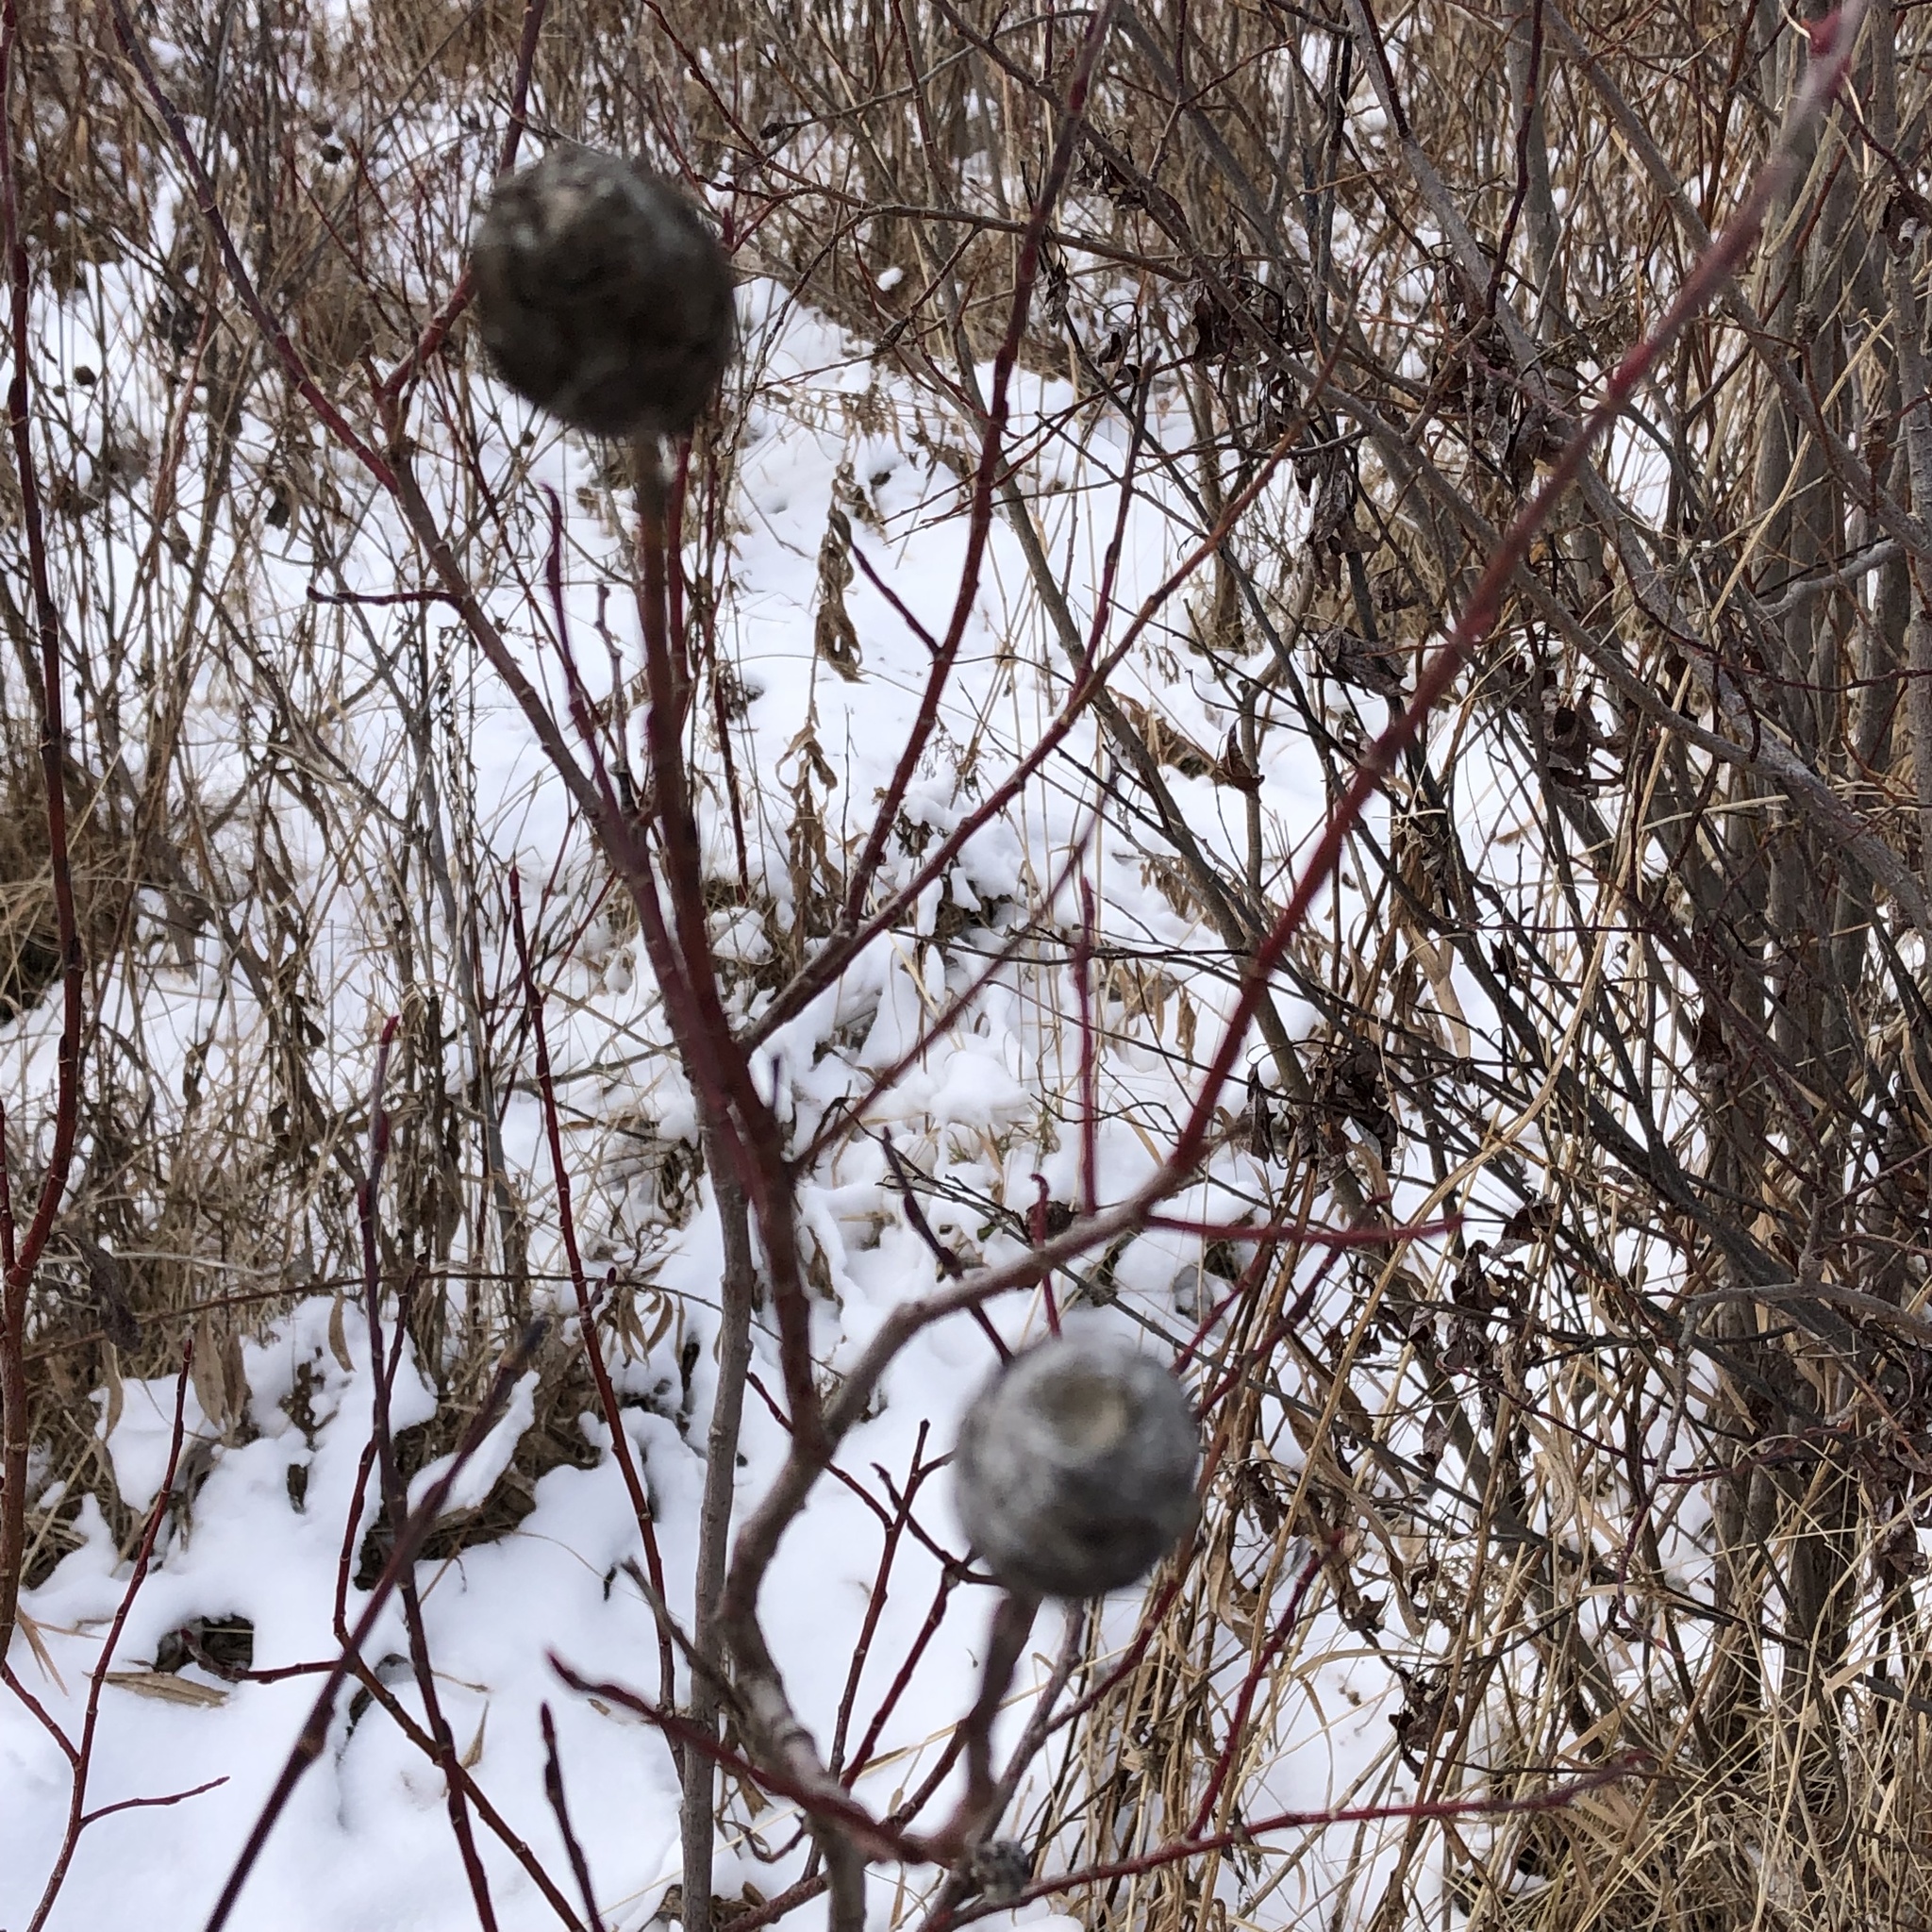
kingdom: Animalia
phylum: Arthropoda
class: Insecta
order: Diptera
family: Cecidomyiidae
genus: Rabdophaga
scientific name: Rabdophaga strobiloides
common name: Willow pinecone gall midge
